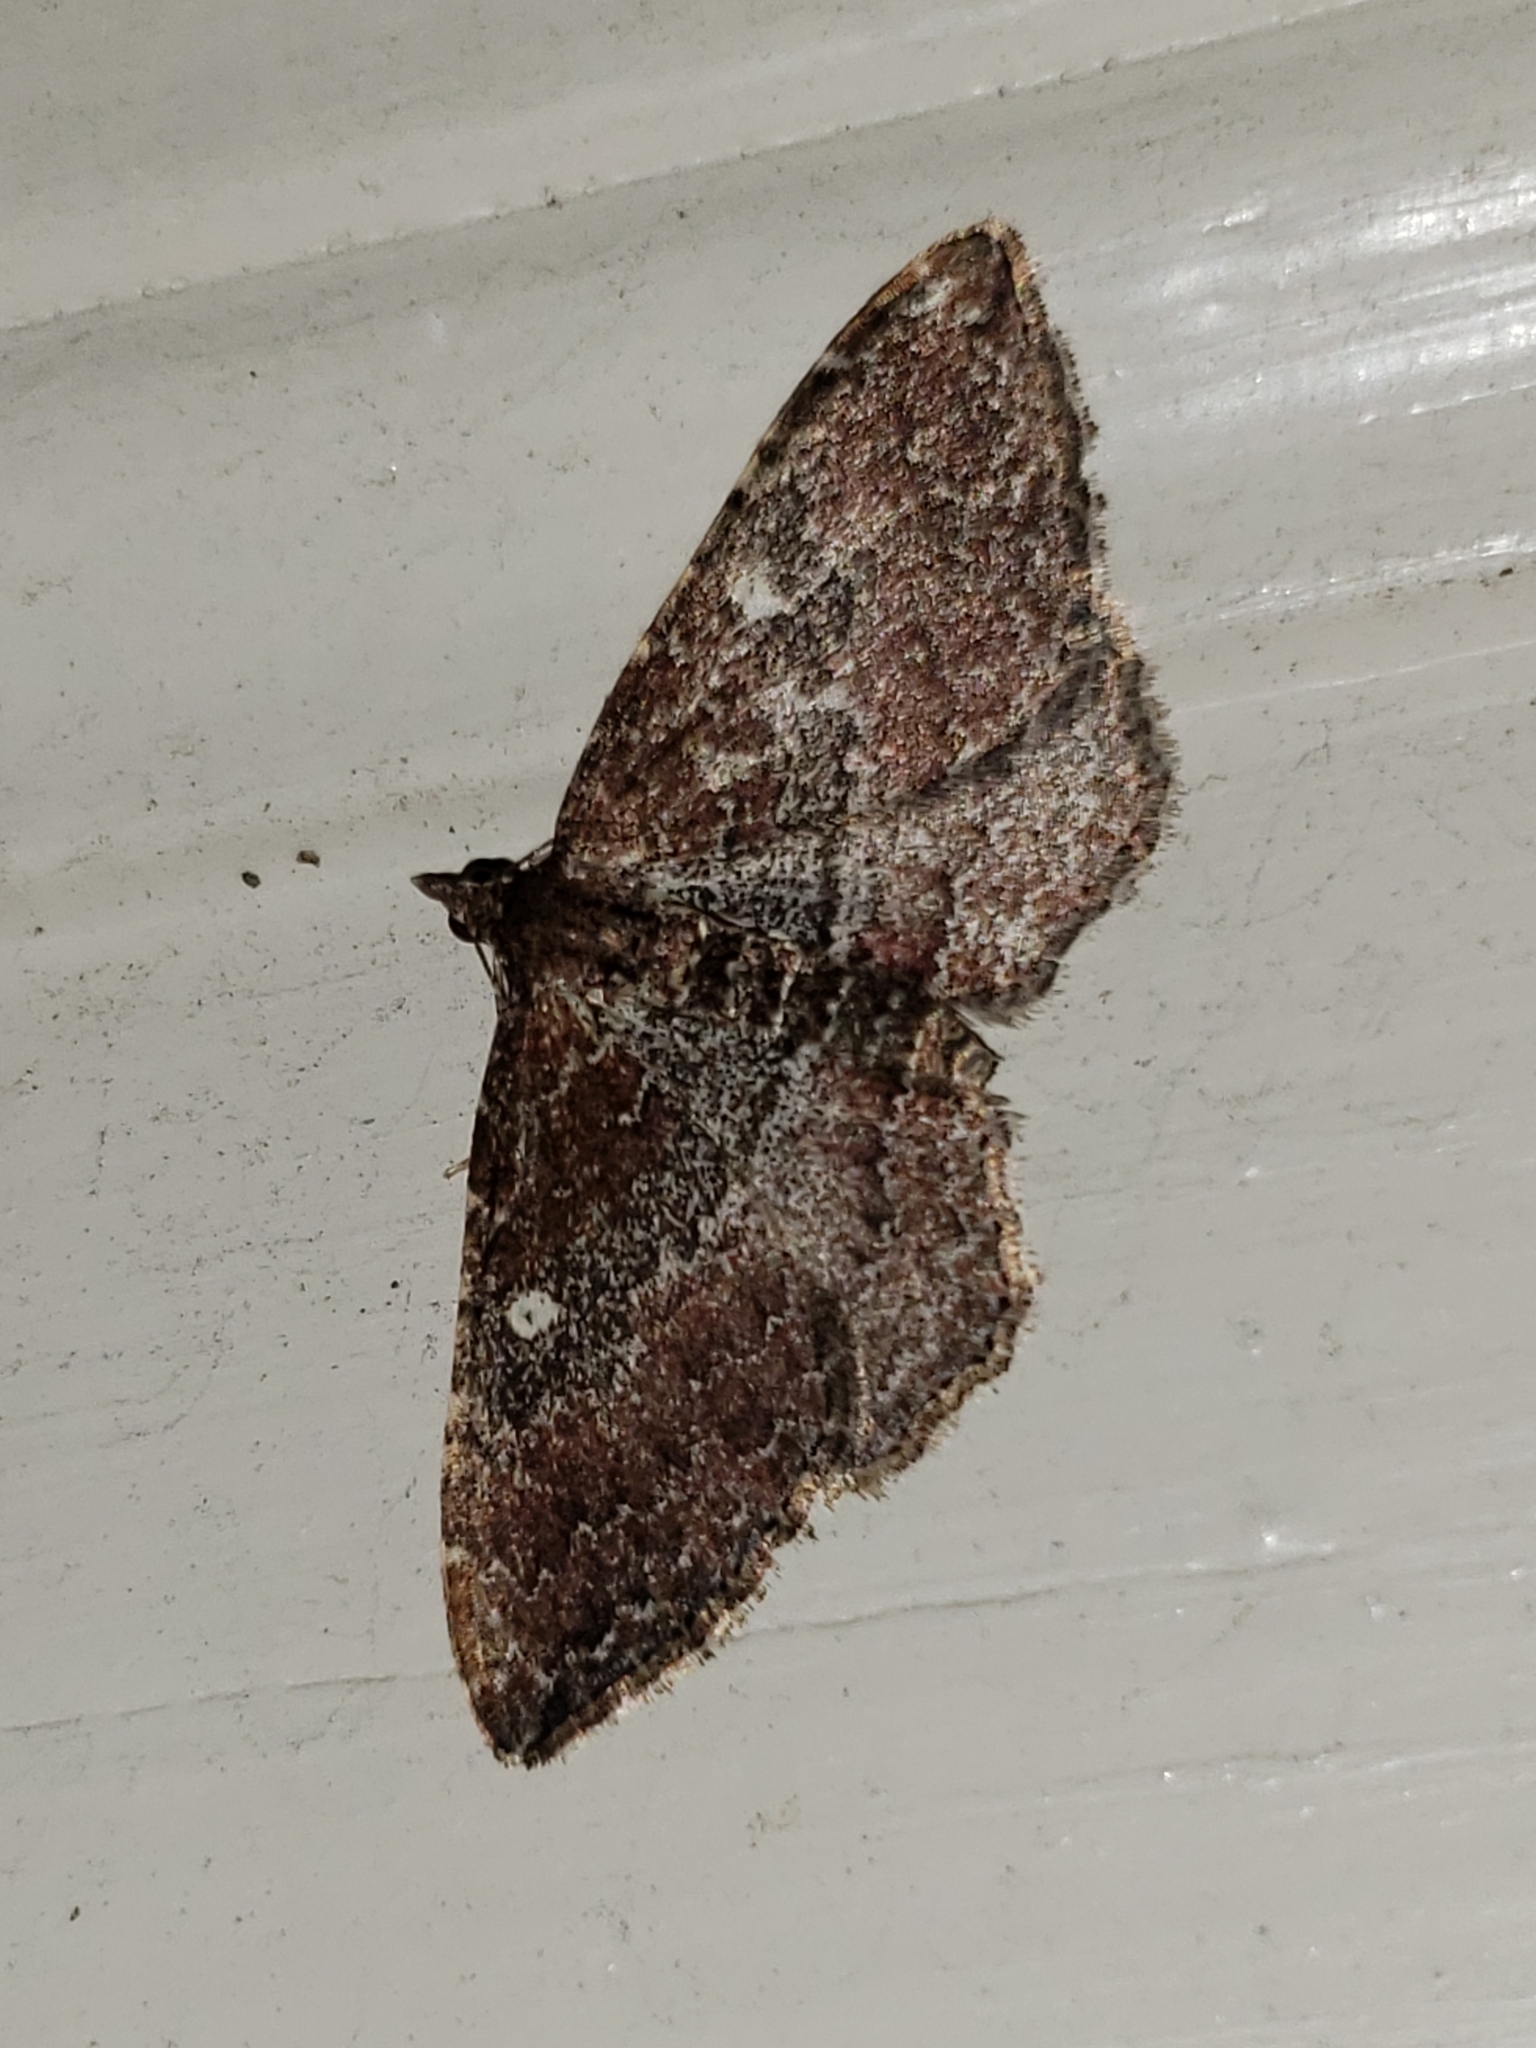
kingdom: Animalia
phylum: Arthropoda
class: Insecta
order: Lepidoptera
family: Geometridae
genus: Orthonama
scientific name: Orthonama obstipata
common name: The gem
